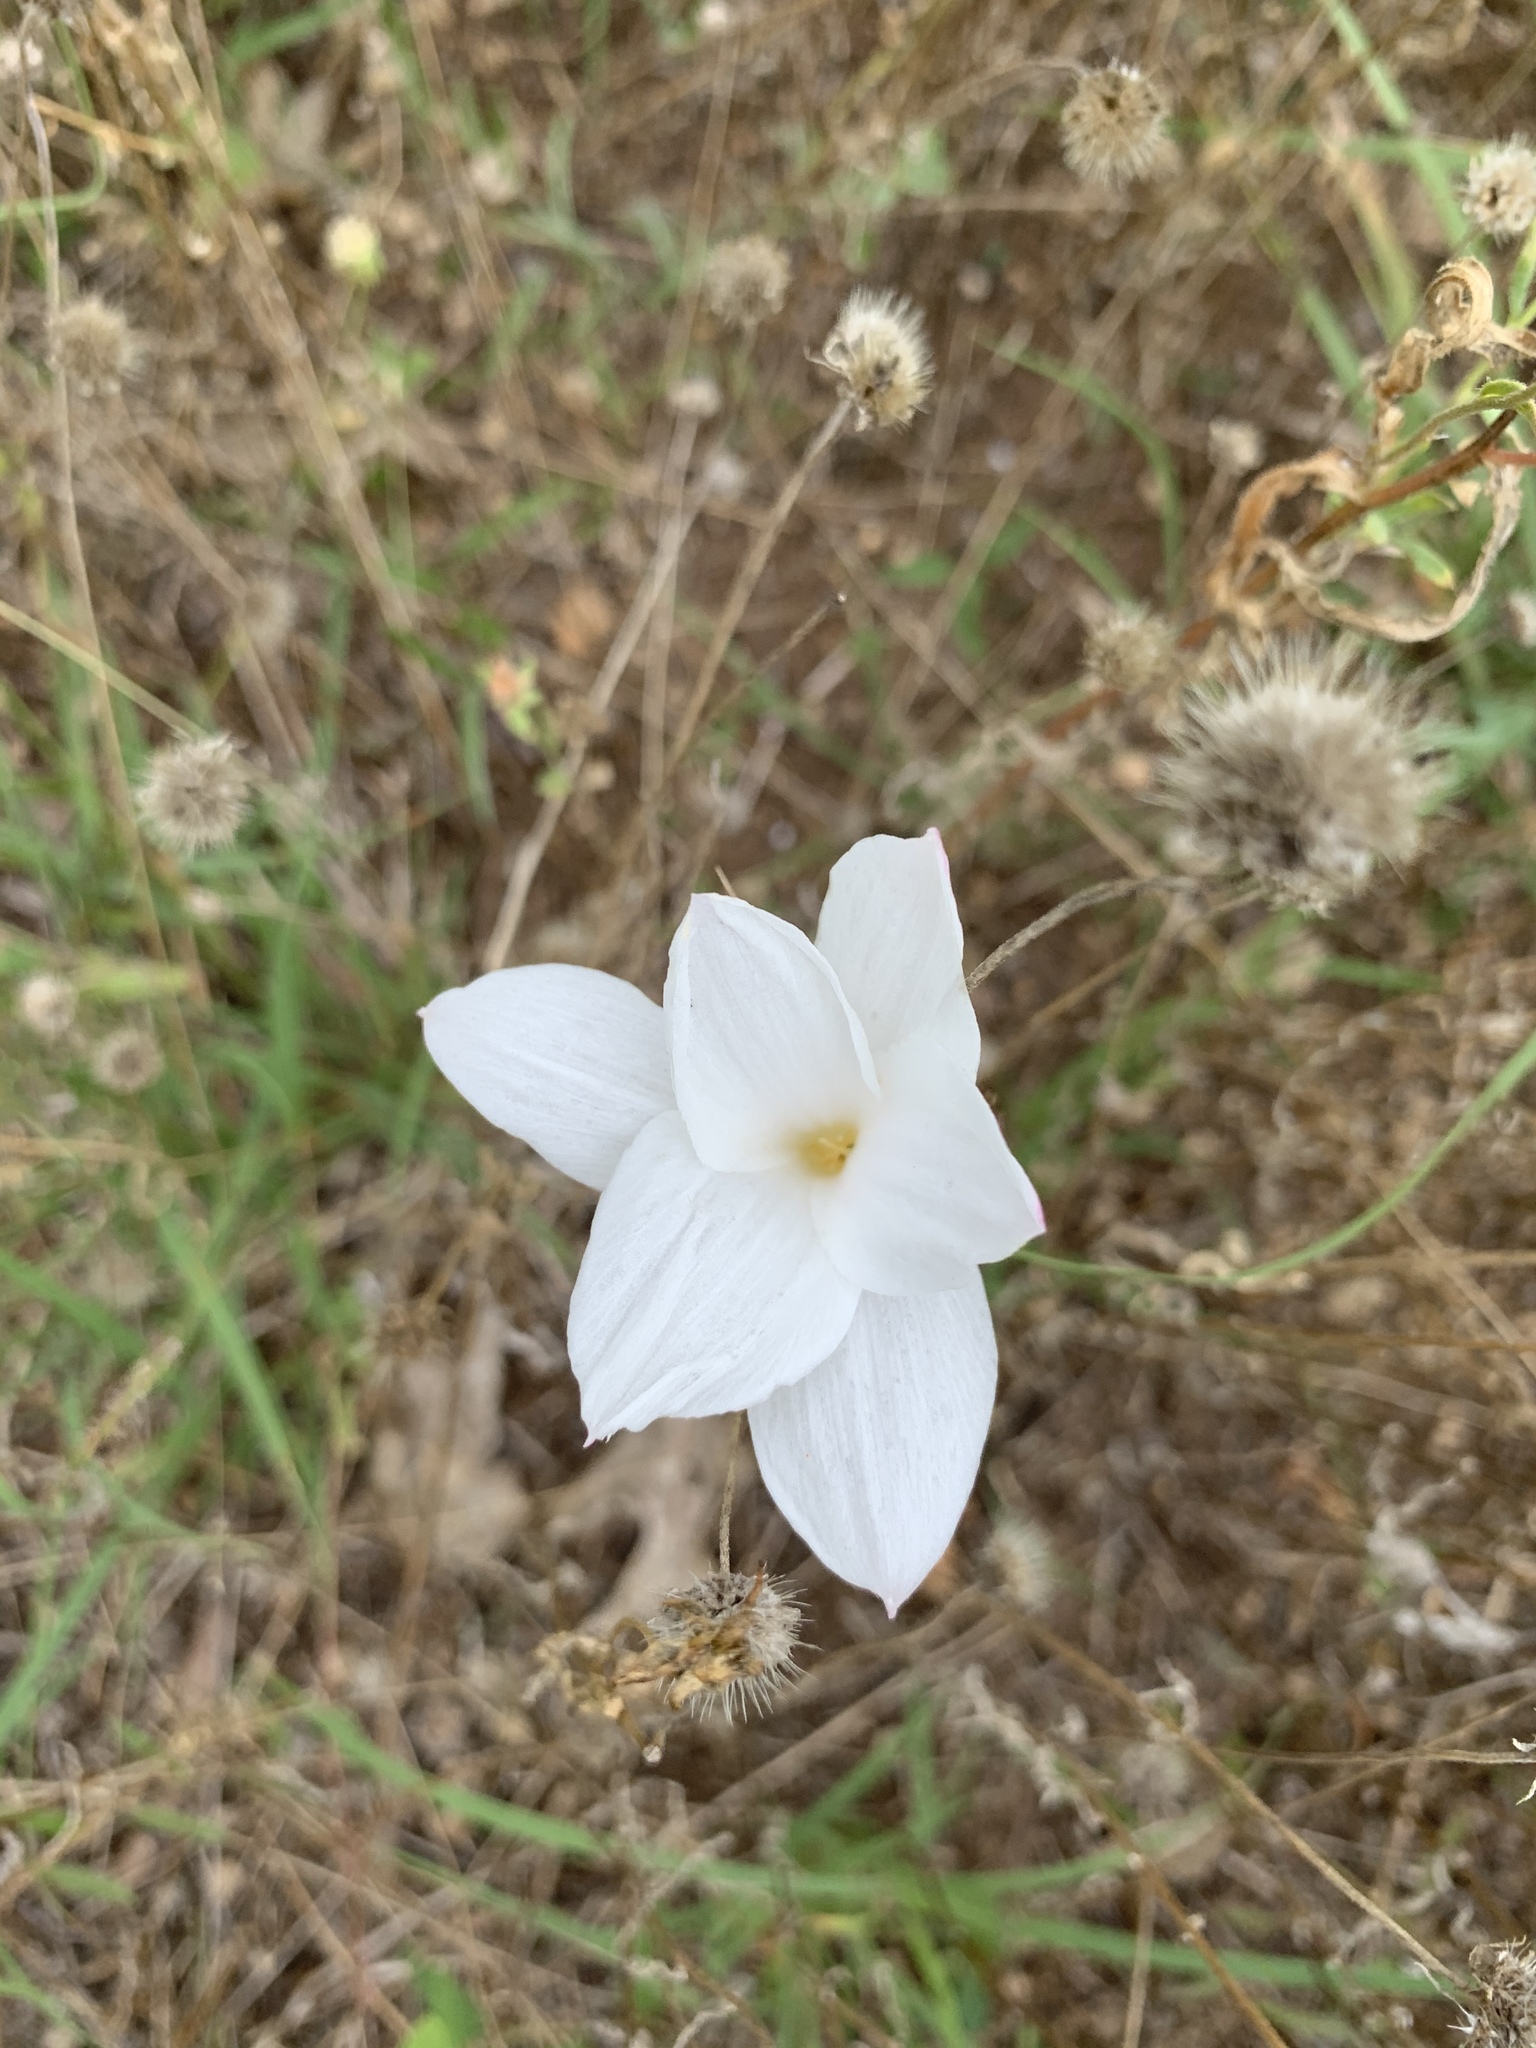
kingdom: Plantae
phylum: Tracheophyta
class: Liliopsida
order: Asparagales
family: Amaryllidaceae
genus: Zephyranthes
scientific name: Zephyranthes drummondii
